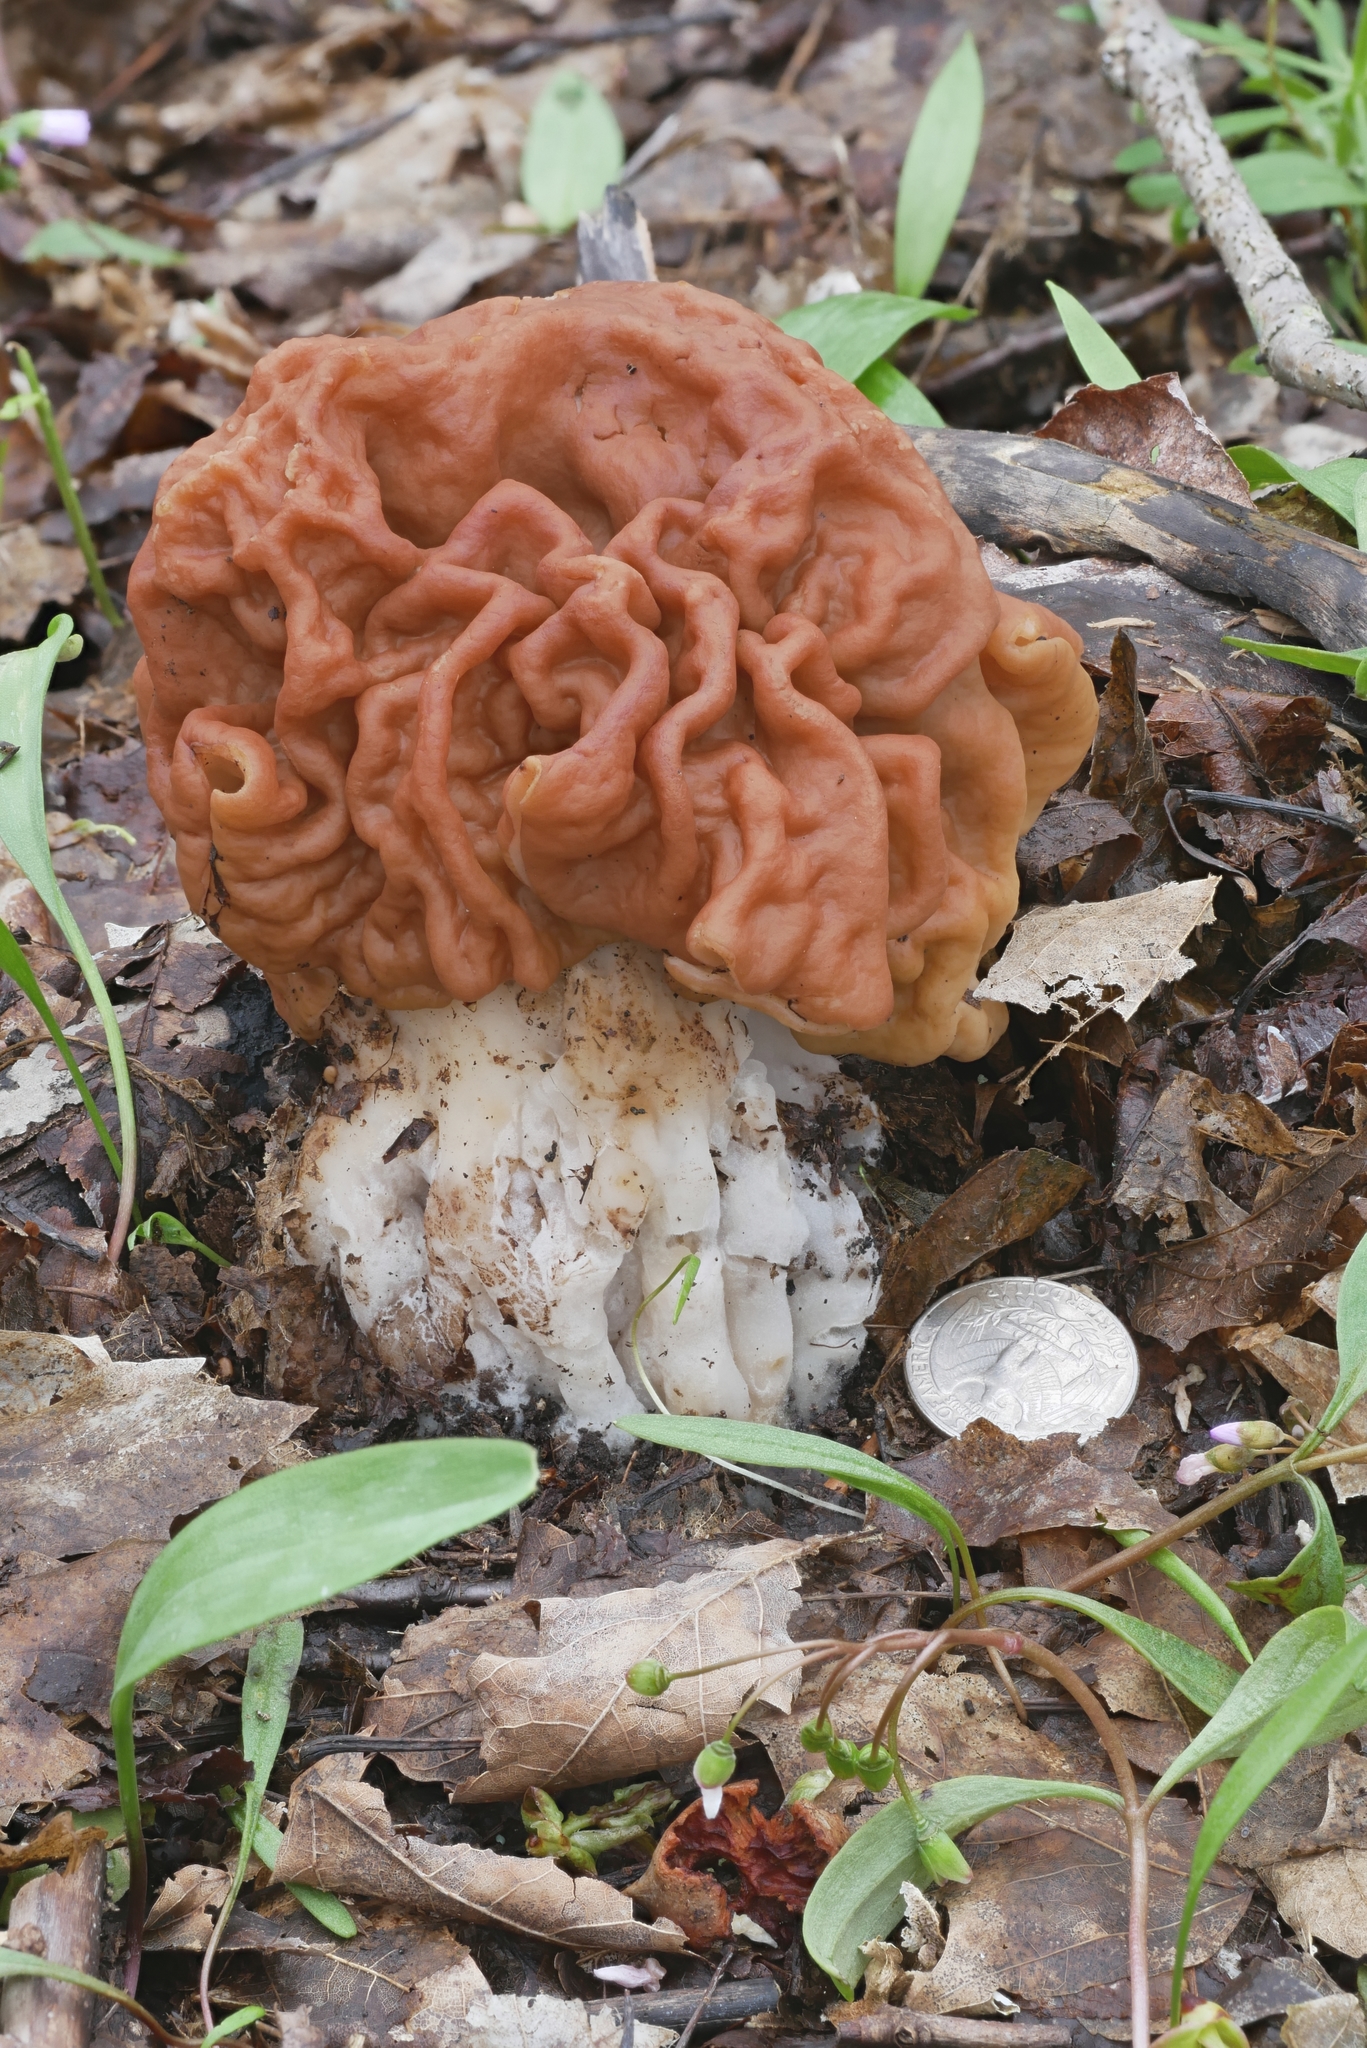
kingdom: Fungi
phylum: Ascomycota
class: Pezizomycetes
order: Pezizales
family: Discinaceae
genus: Gyromitra
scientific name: Gyromitra korfii
